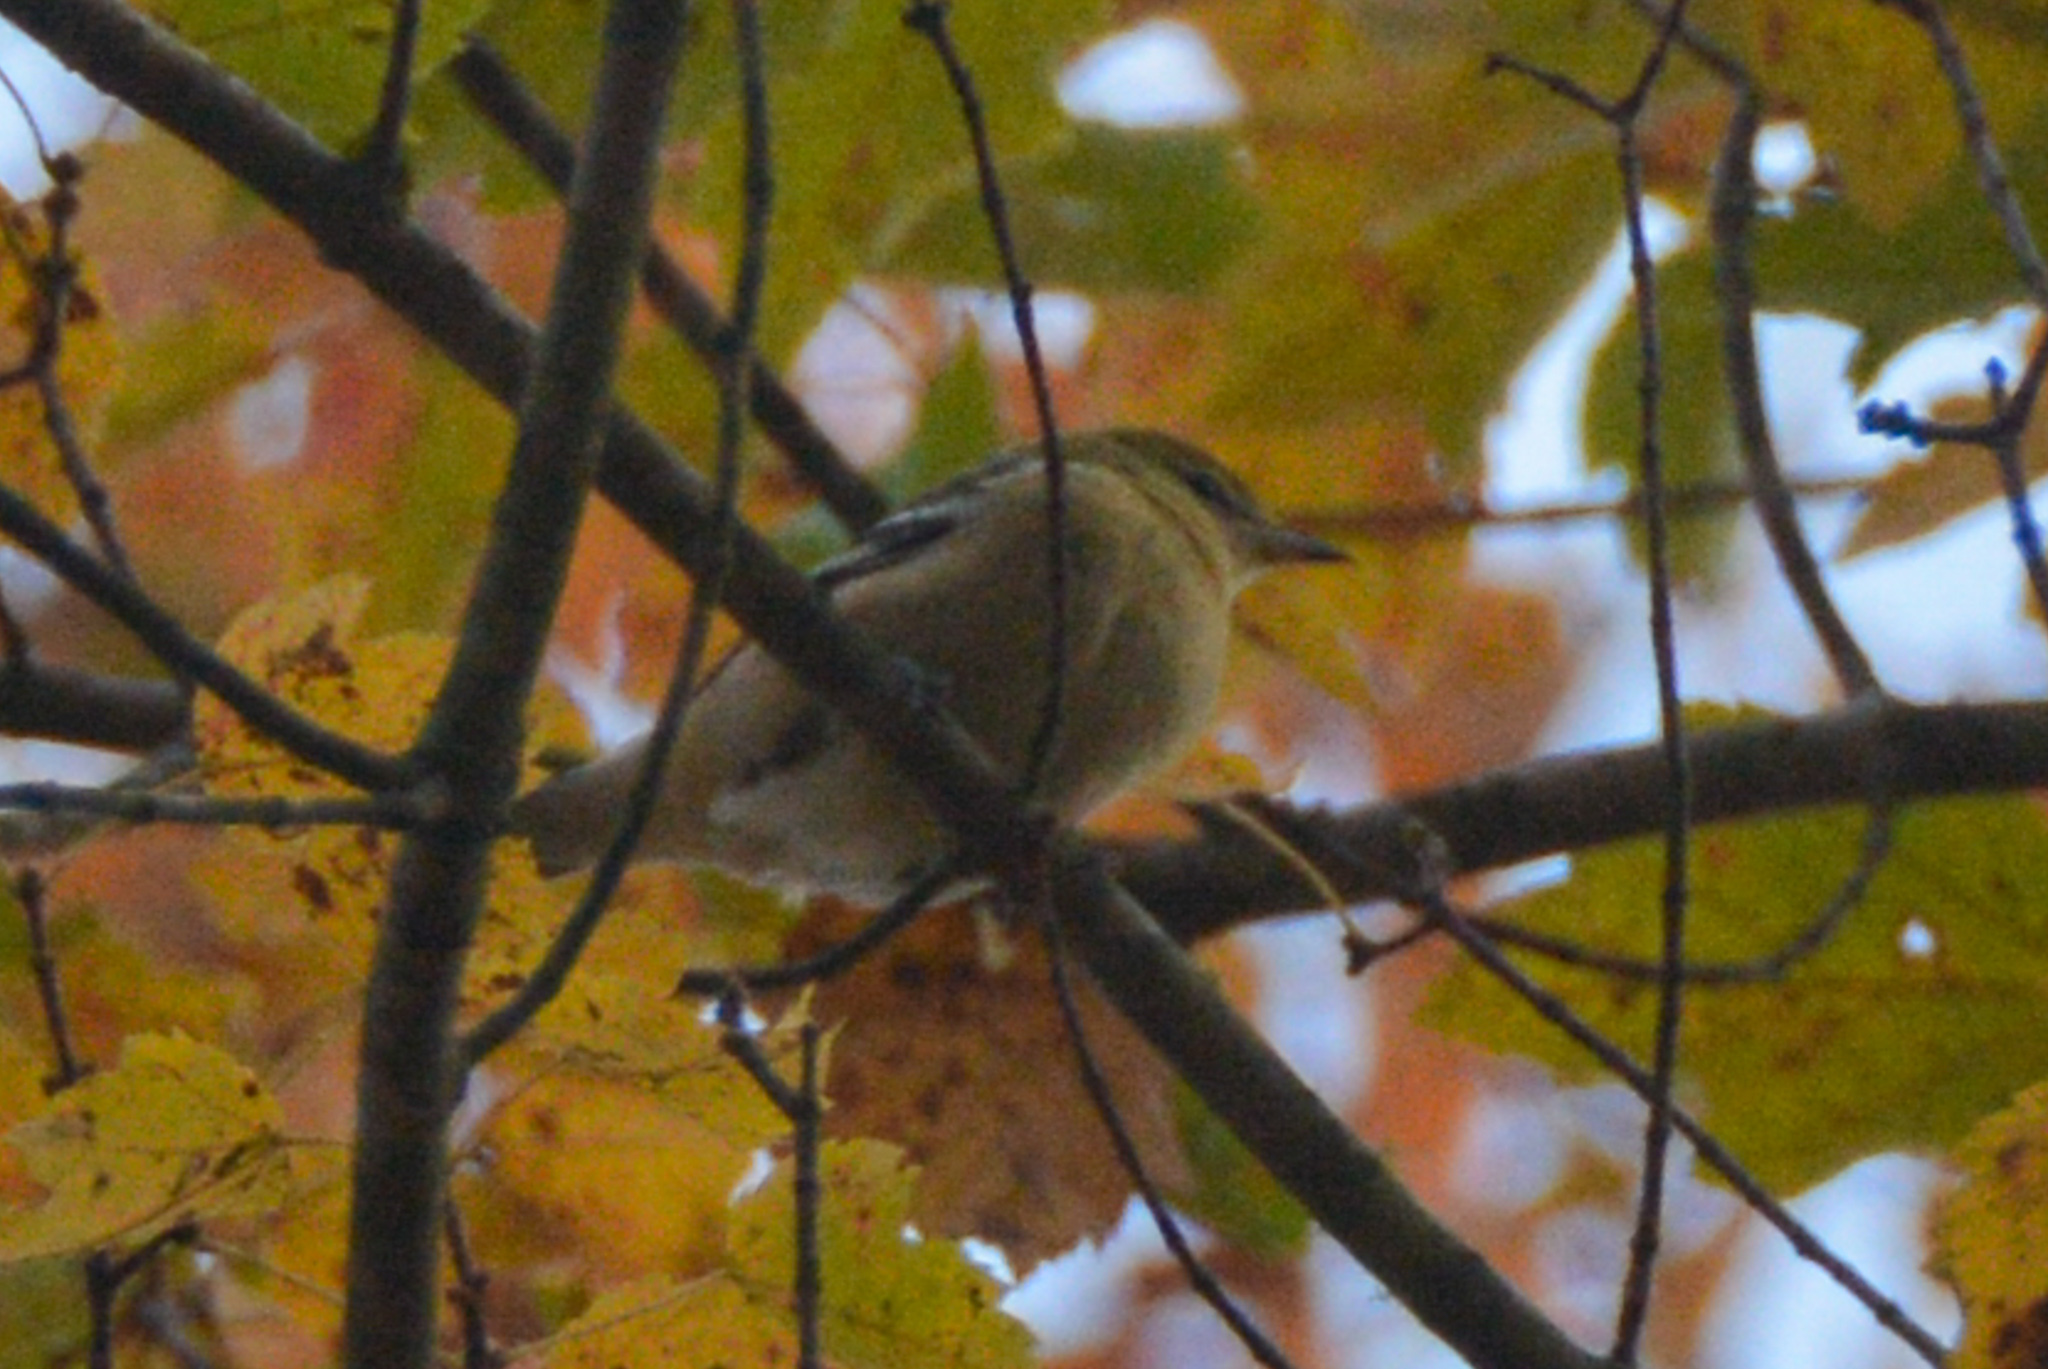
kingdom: Animalia
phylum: Chordata
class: Aves
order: Passeriformes
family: Parulidae
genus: Setophaga
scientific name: Setophaga castanea
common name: Bay-breasted warbler
